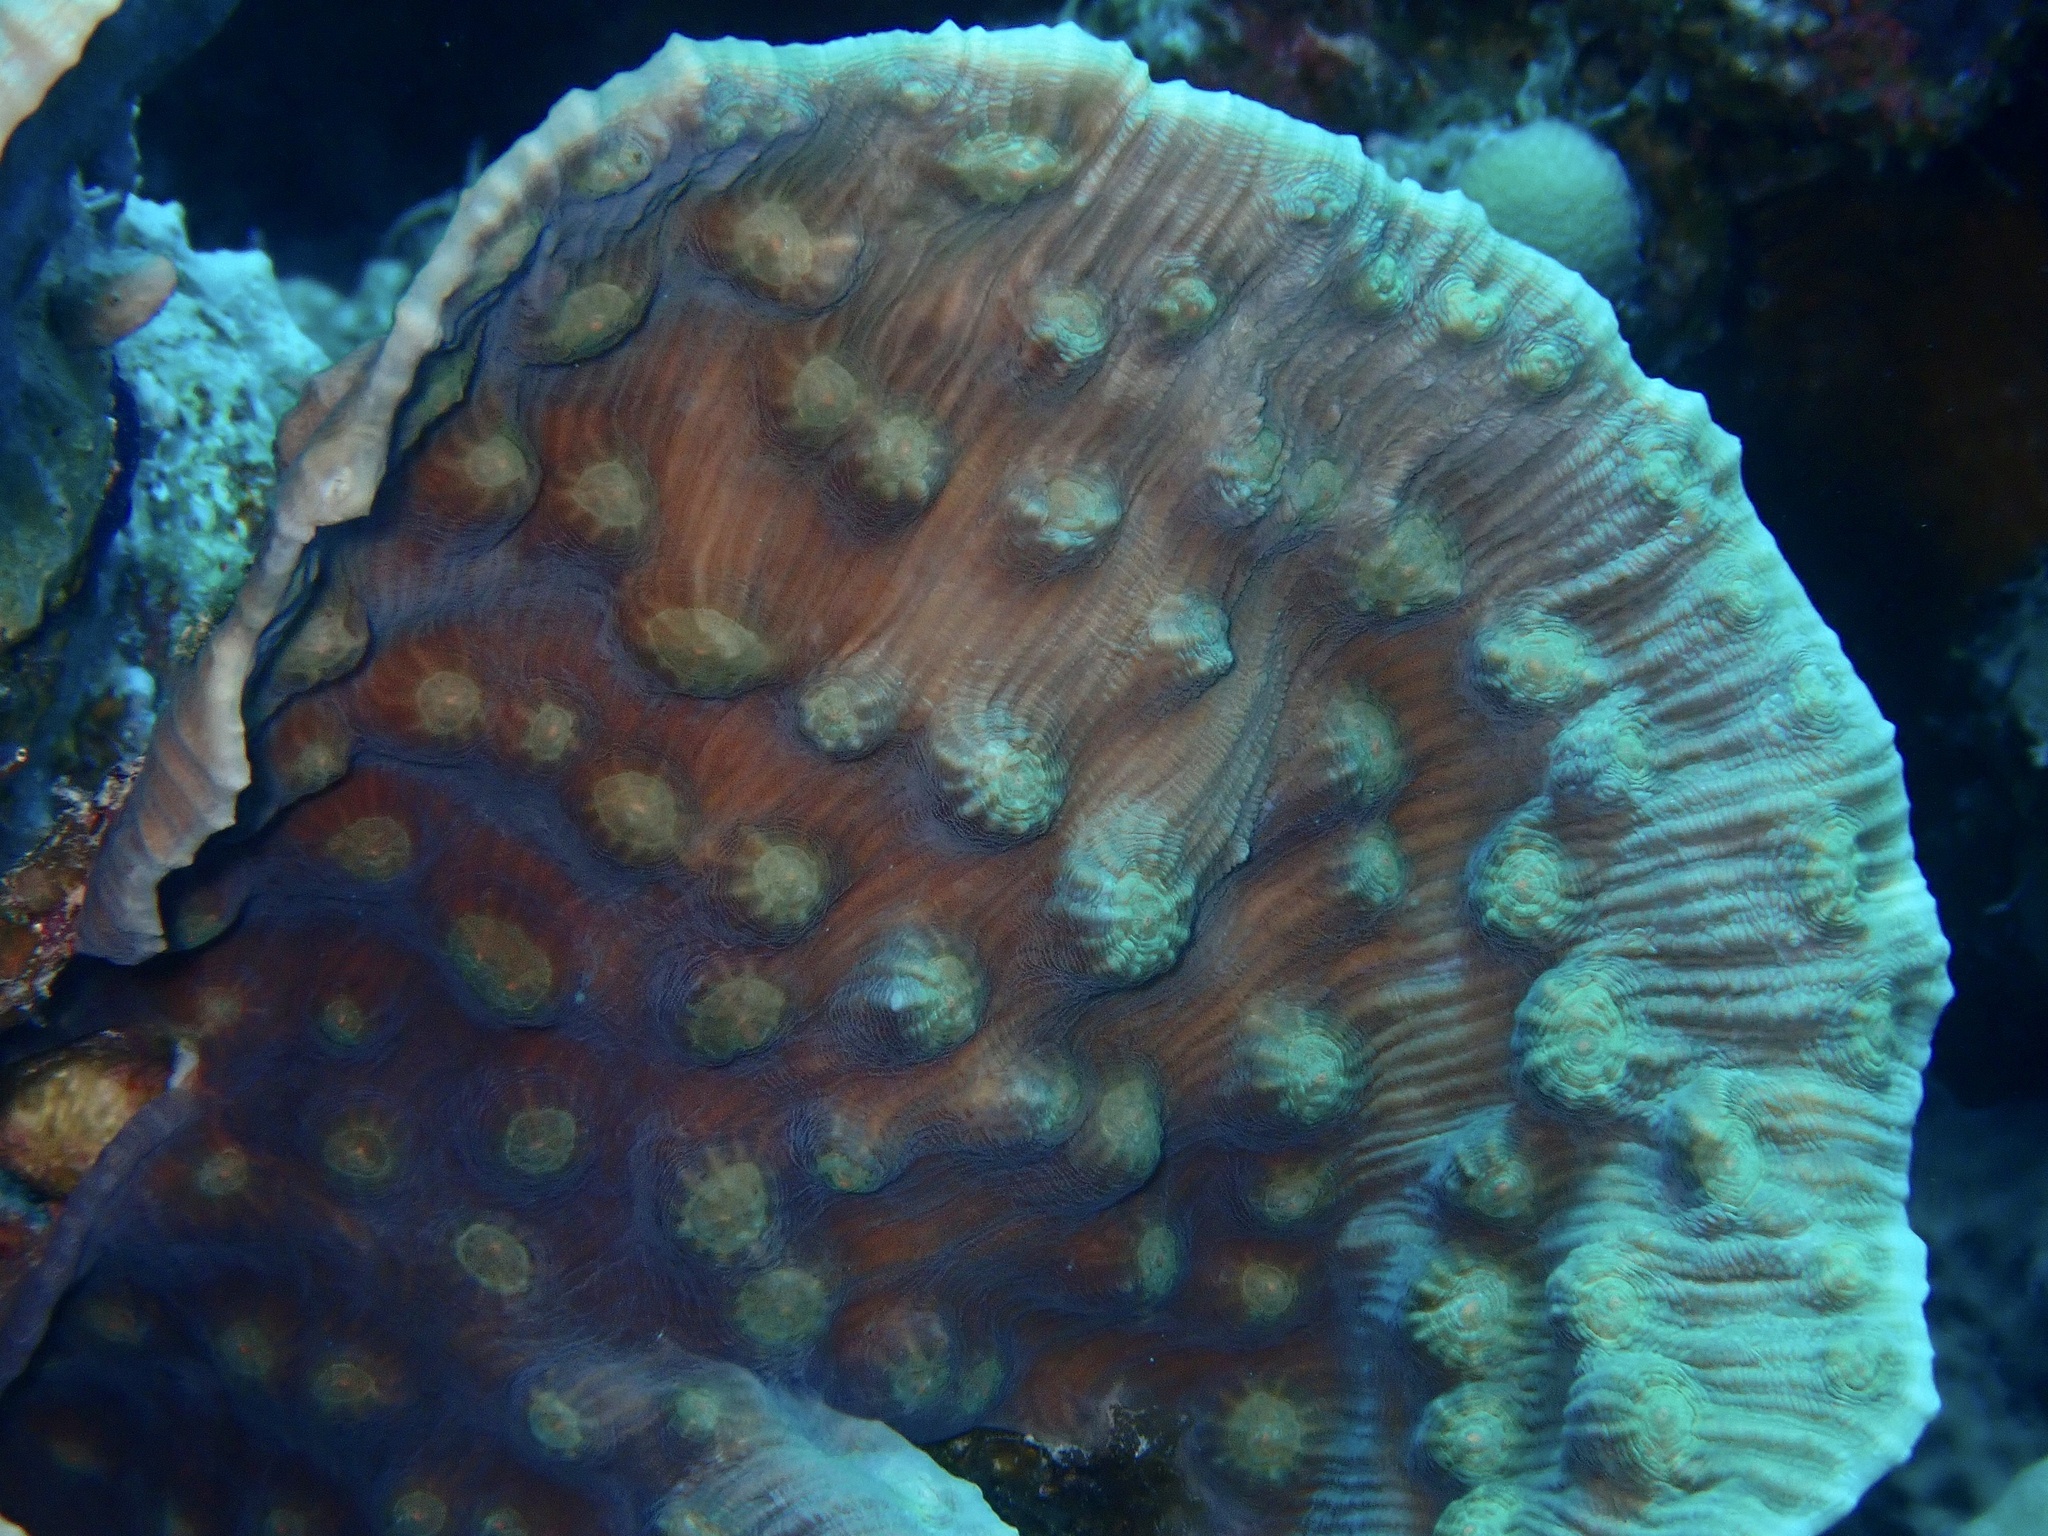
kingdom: Animalia
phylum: Cnidaria
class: Anthozoa
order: Scleractinia
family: Merulinidae
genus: Mycedium
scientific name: Mycedium umbra
